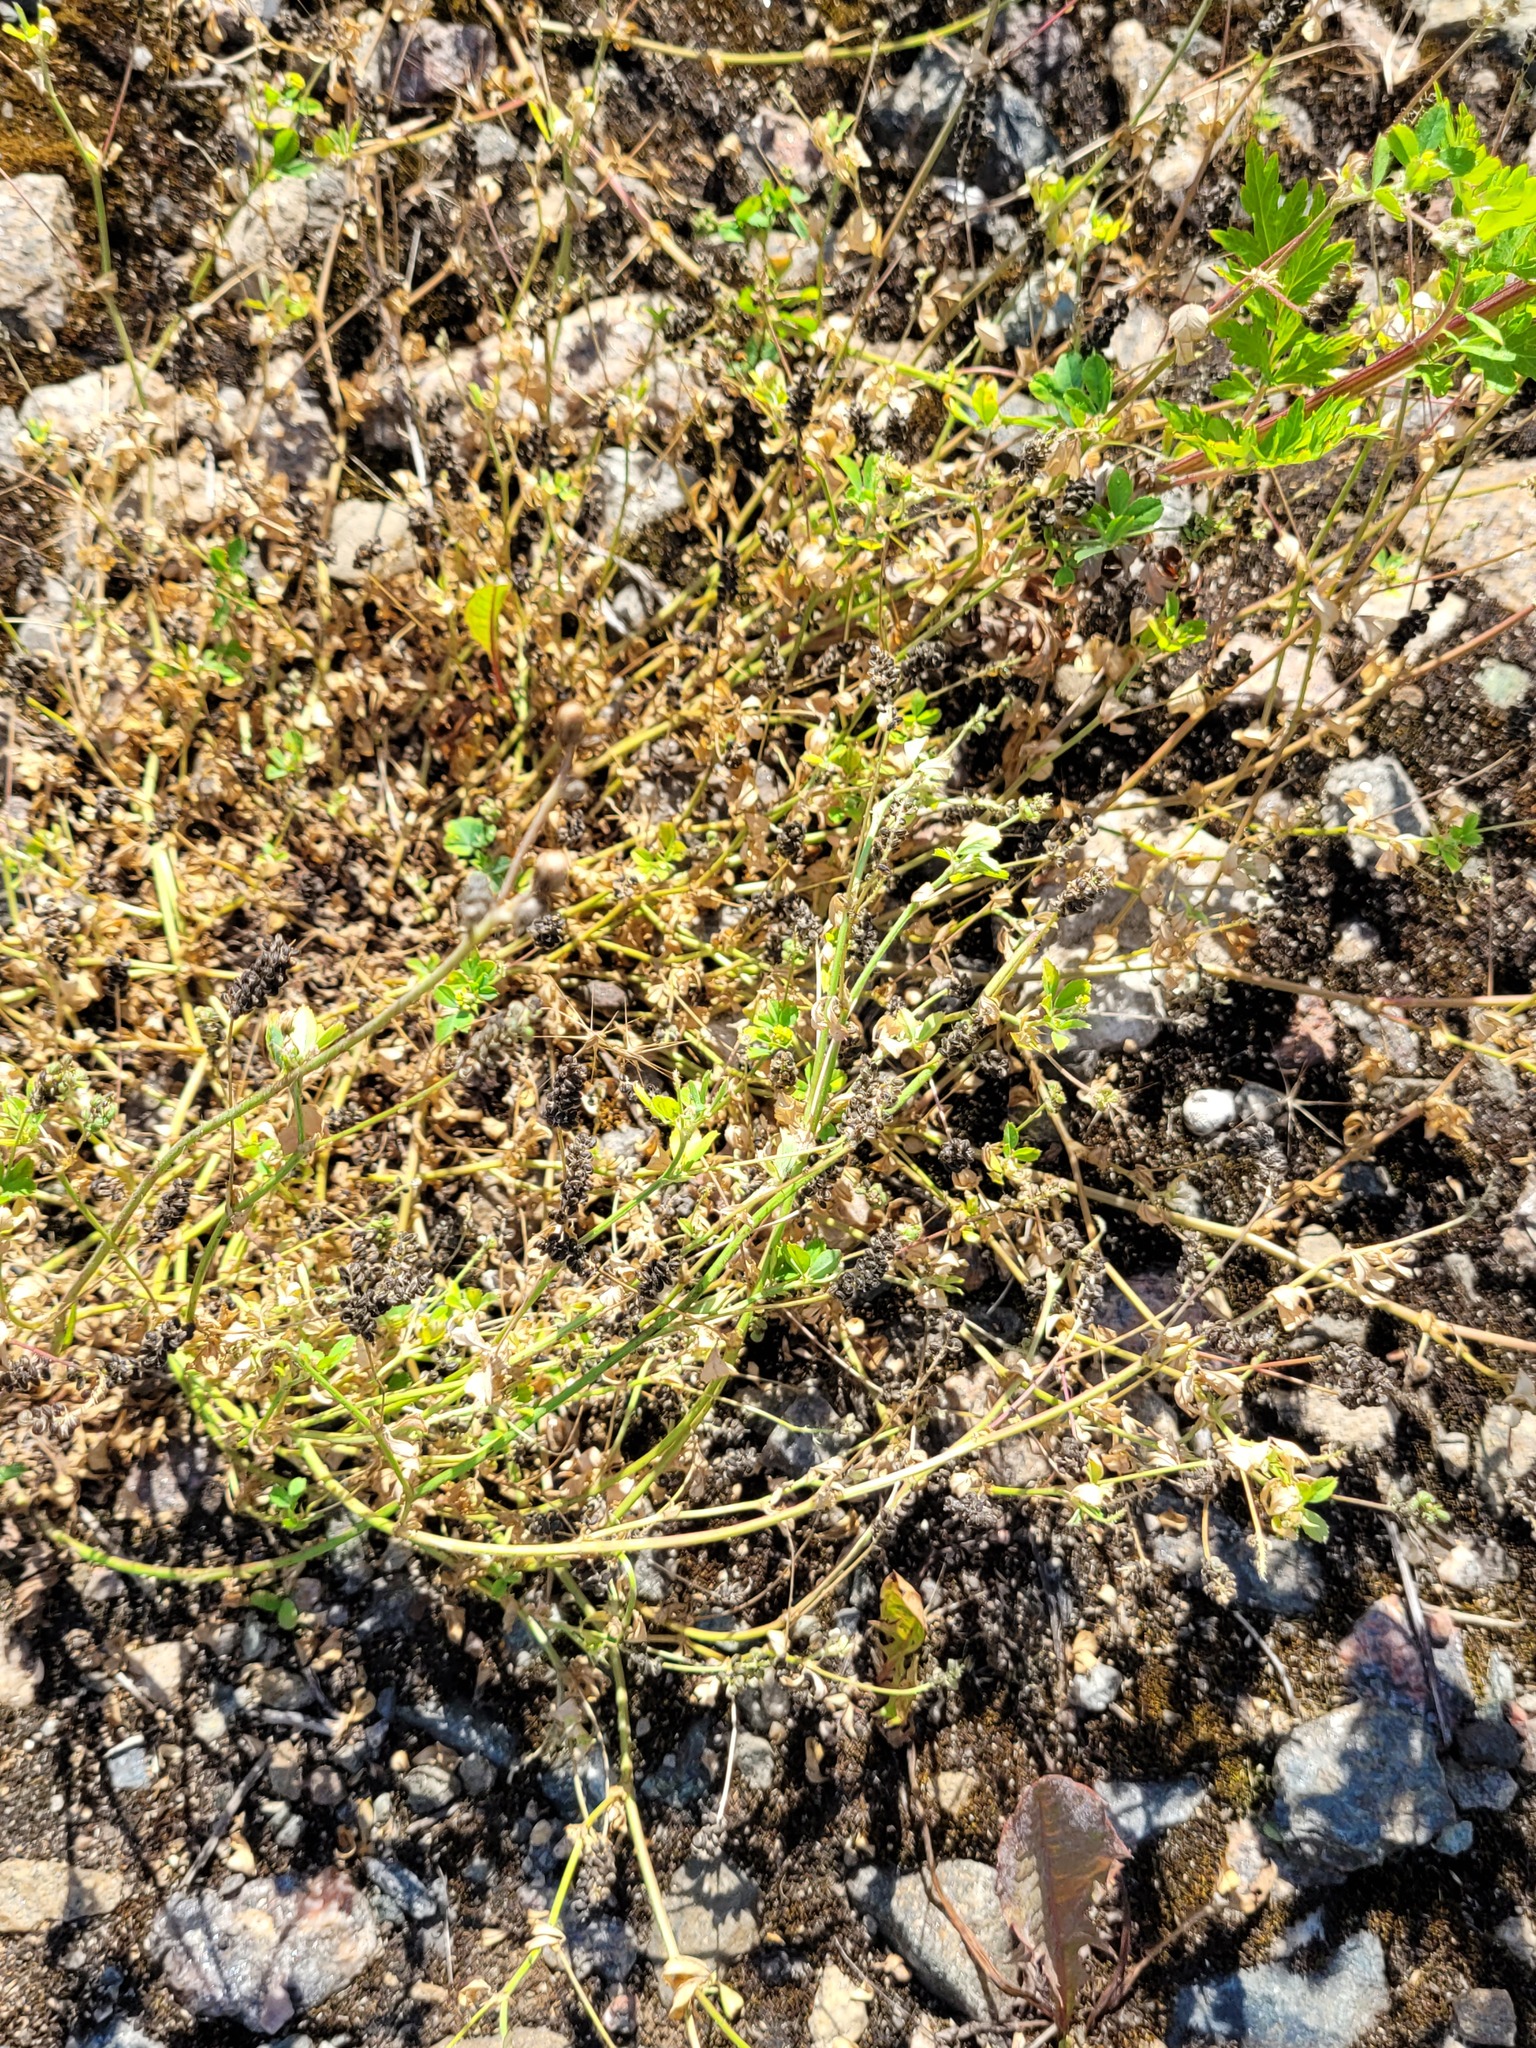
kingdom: Plantae
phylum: Tracheophyta
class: Magnoliopsida
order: Fabales
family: Fabaceae
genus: Medicago
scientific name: Medicago lupulina
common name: Black medick
